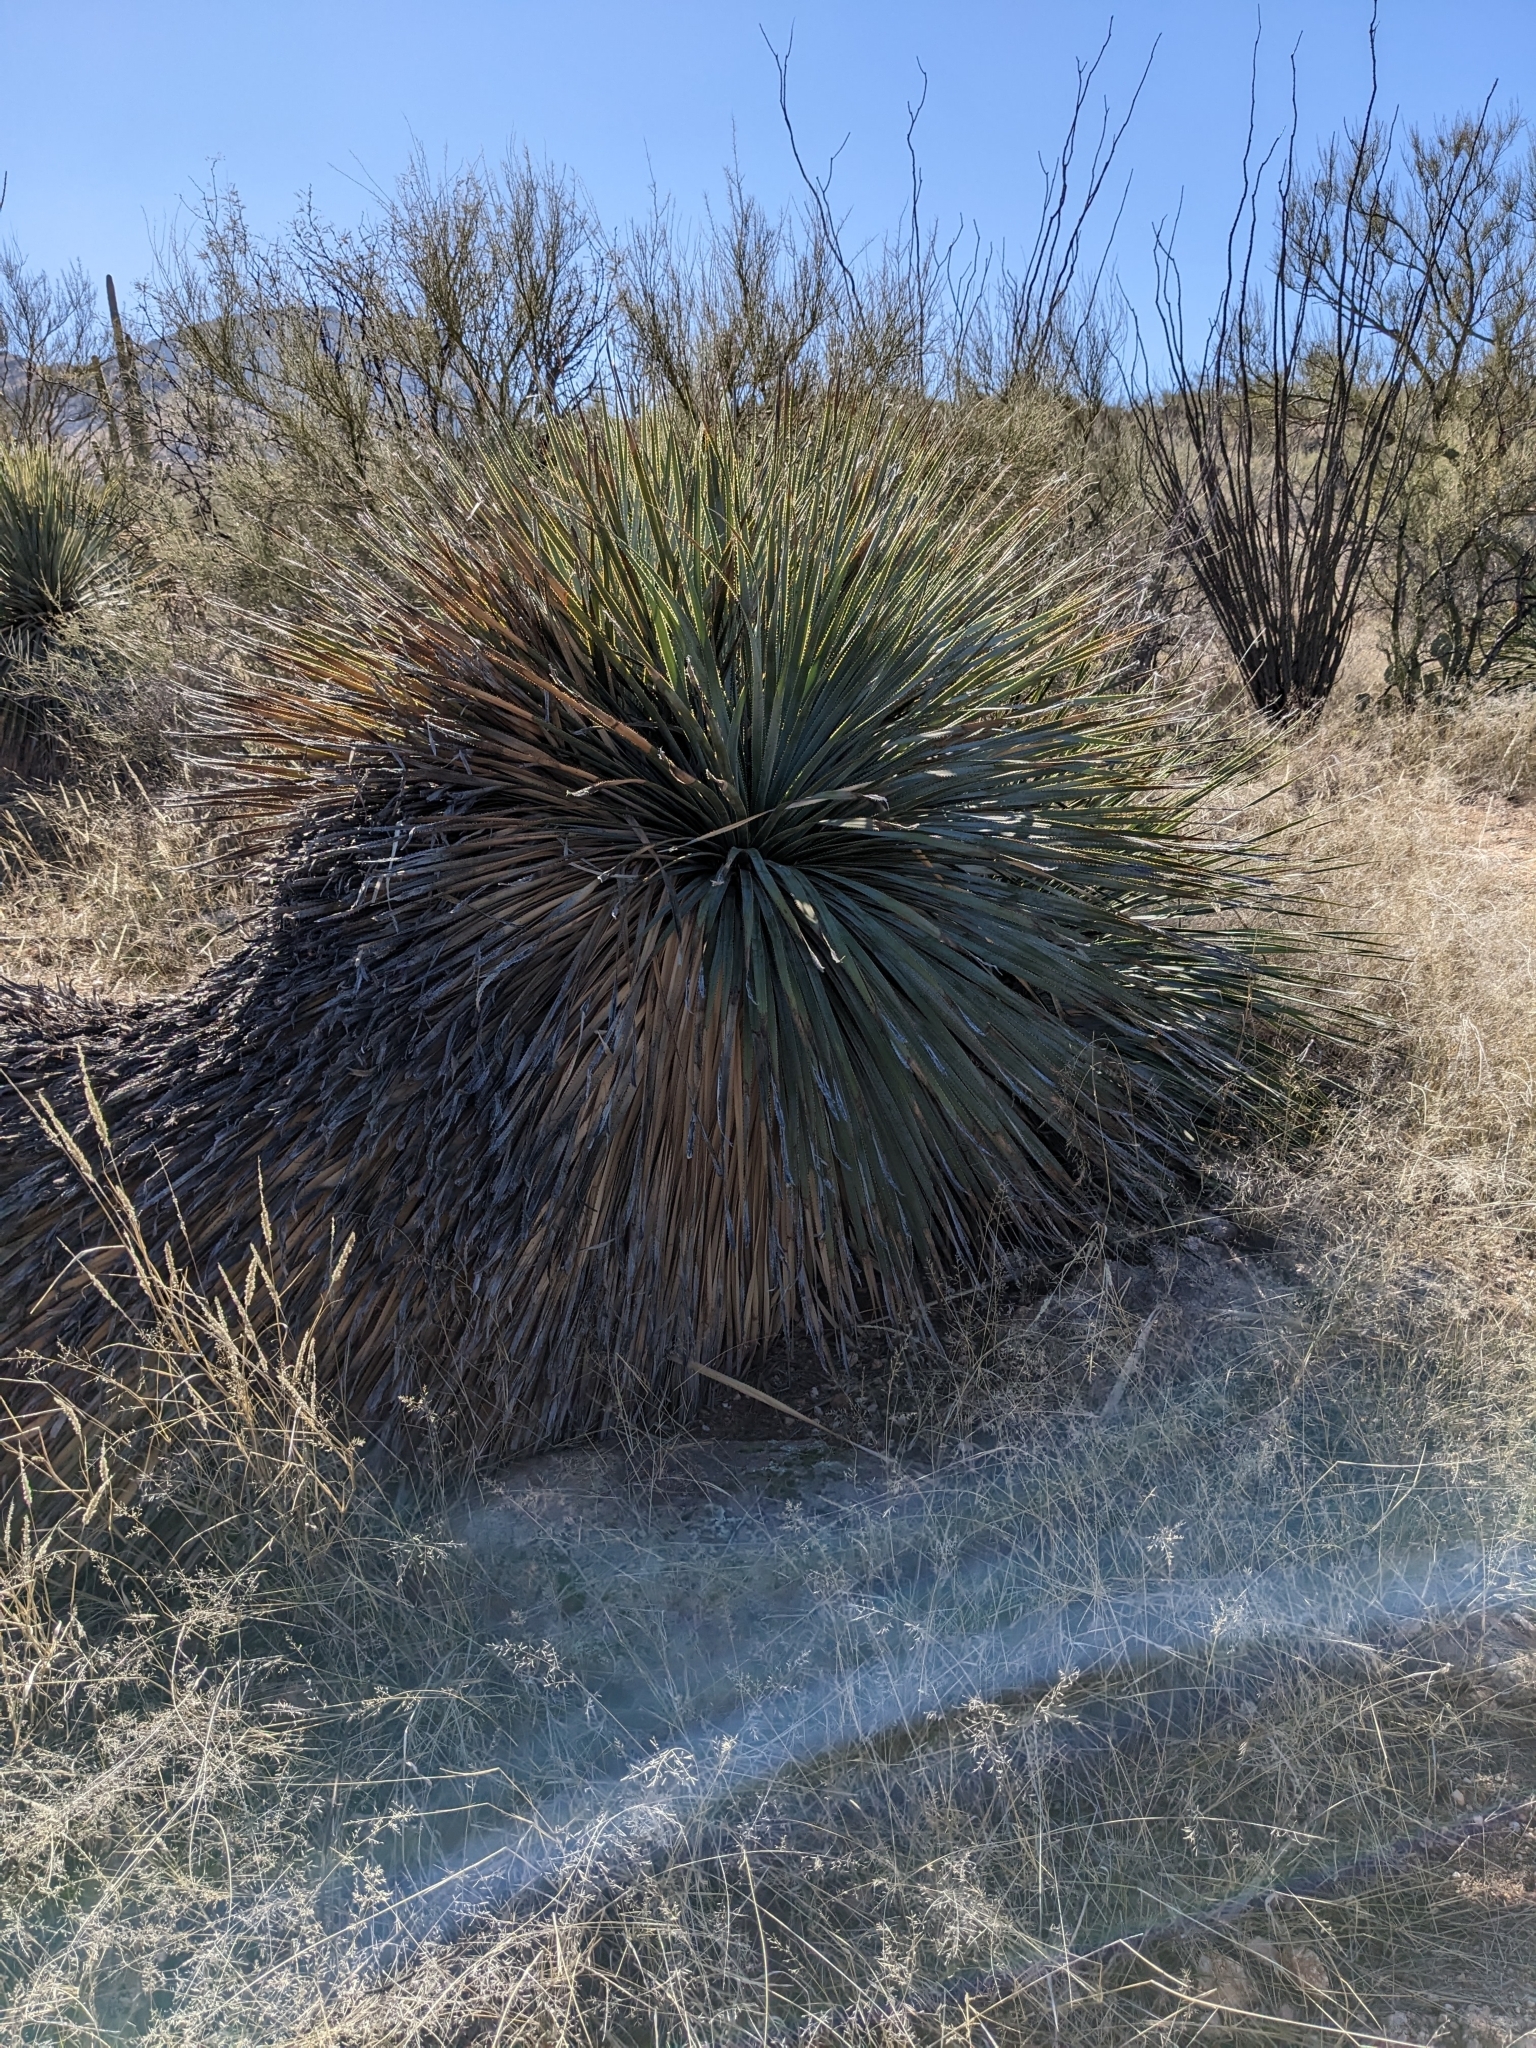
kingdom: Plantae
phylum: Tracheophyta
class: Liliopsida
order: Asparagales
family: Asparagaceae
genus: Dasylirion
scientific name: Dasylirion wheeleri
